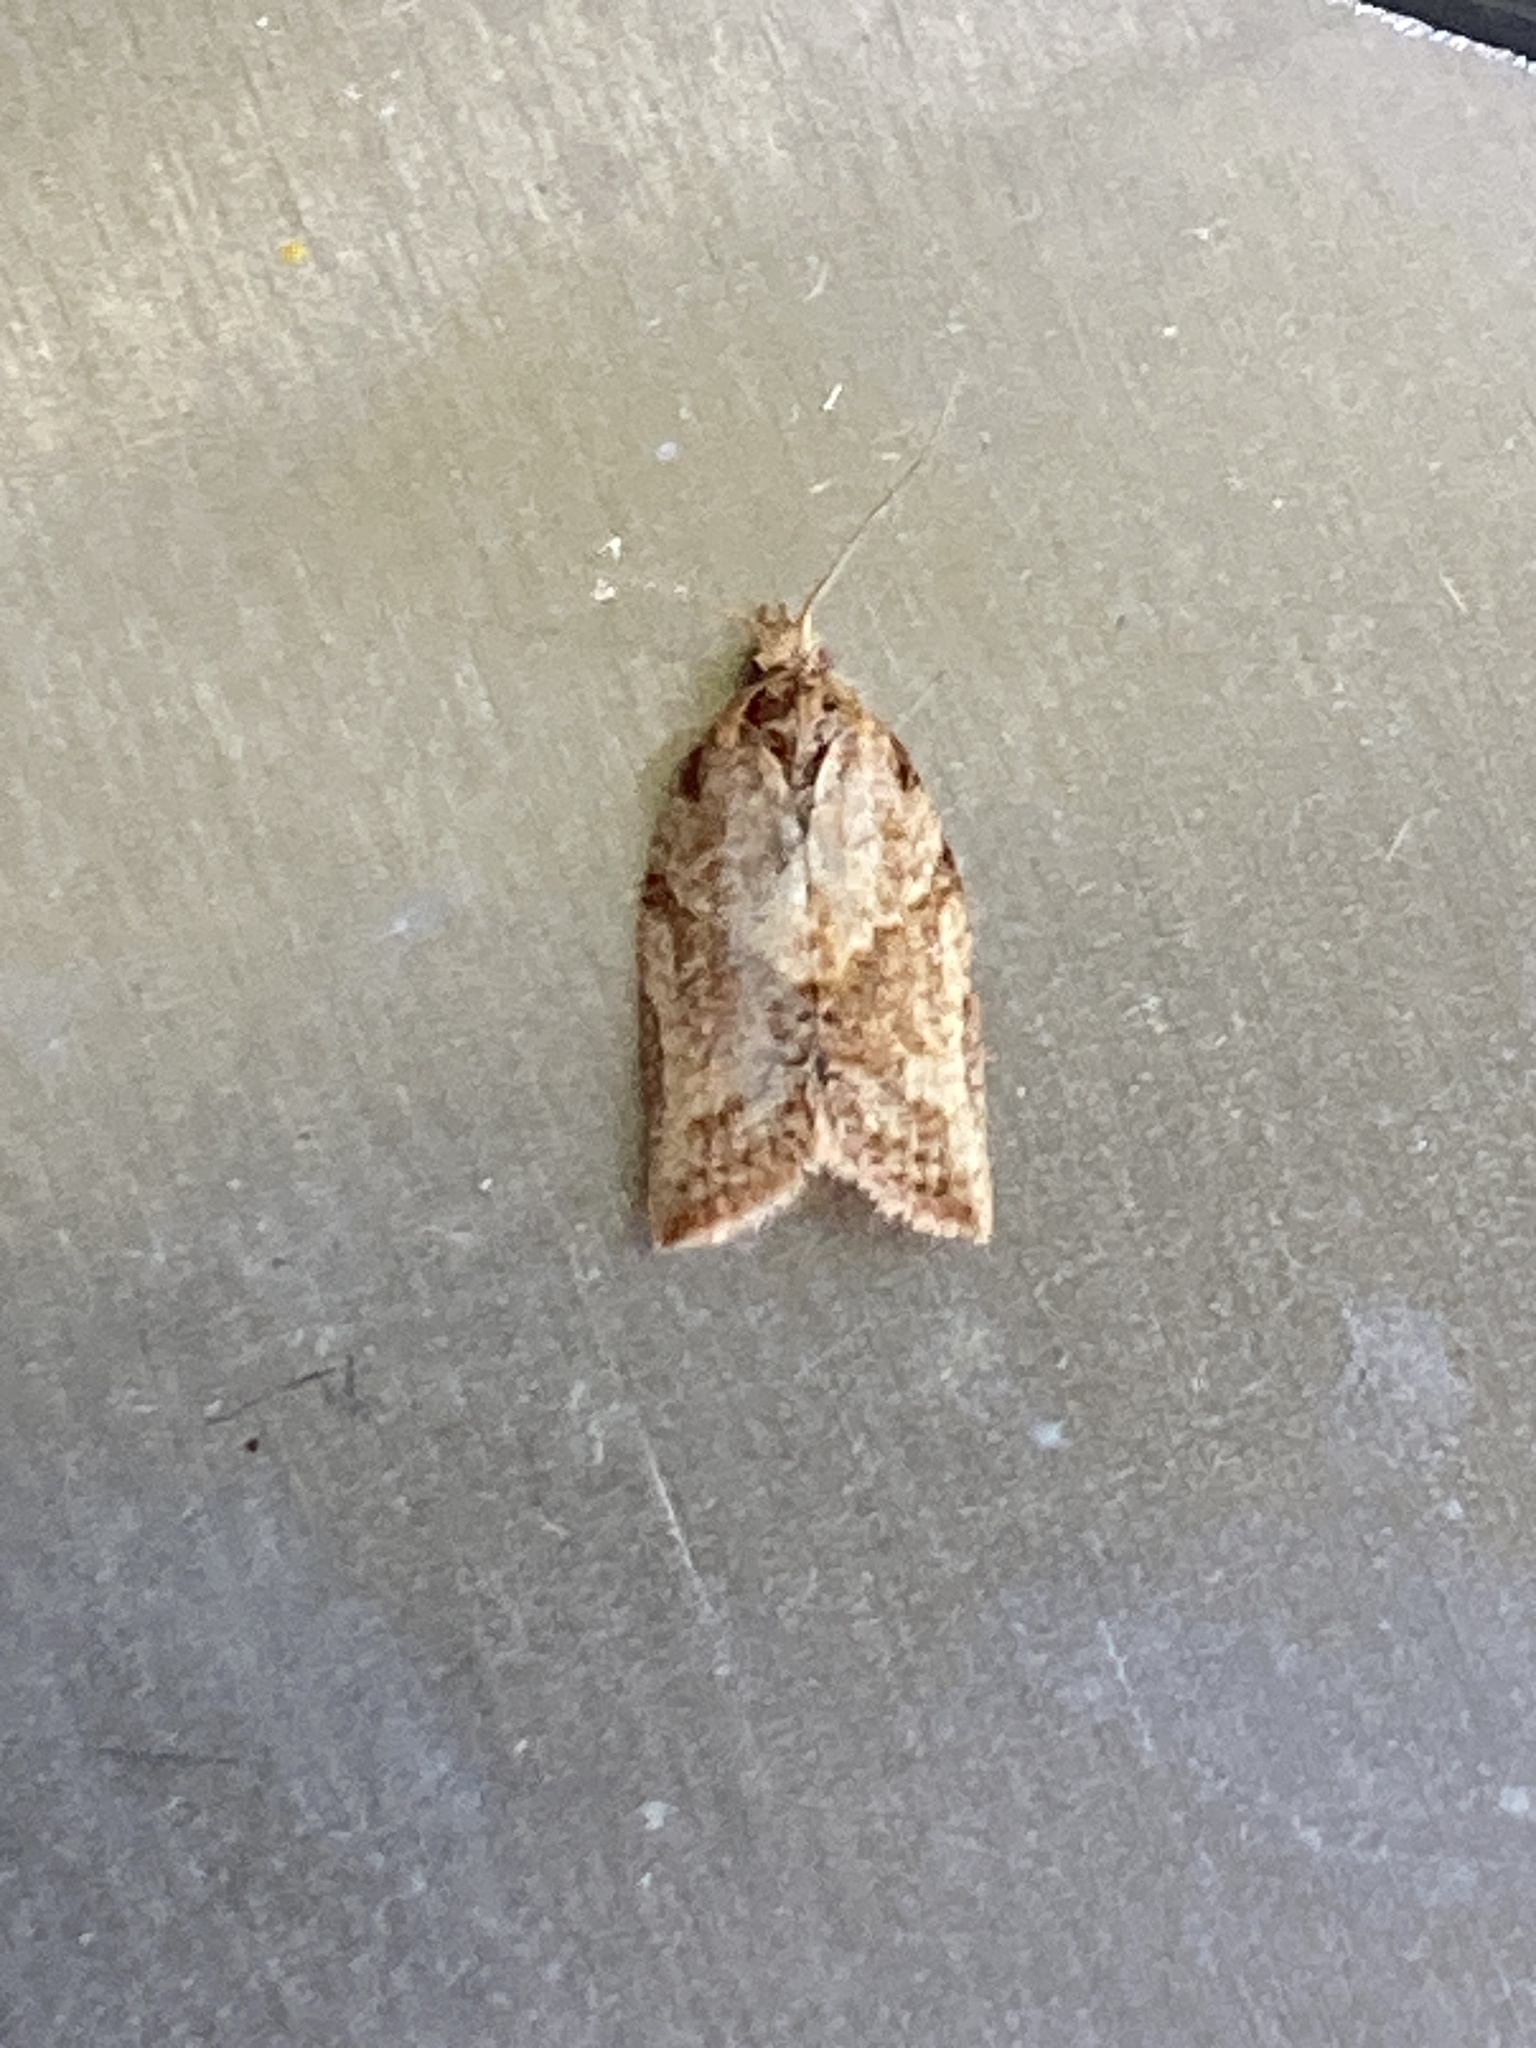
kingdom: Animalia
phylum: Arthropoda
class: Insecta
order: Lepidoptera
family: Tortricidae
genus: Epiphyas
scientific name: Epiphyas postvittana
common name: Light brown apple moth
